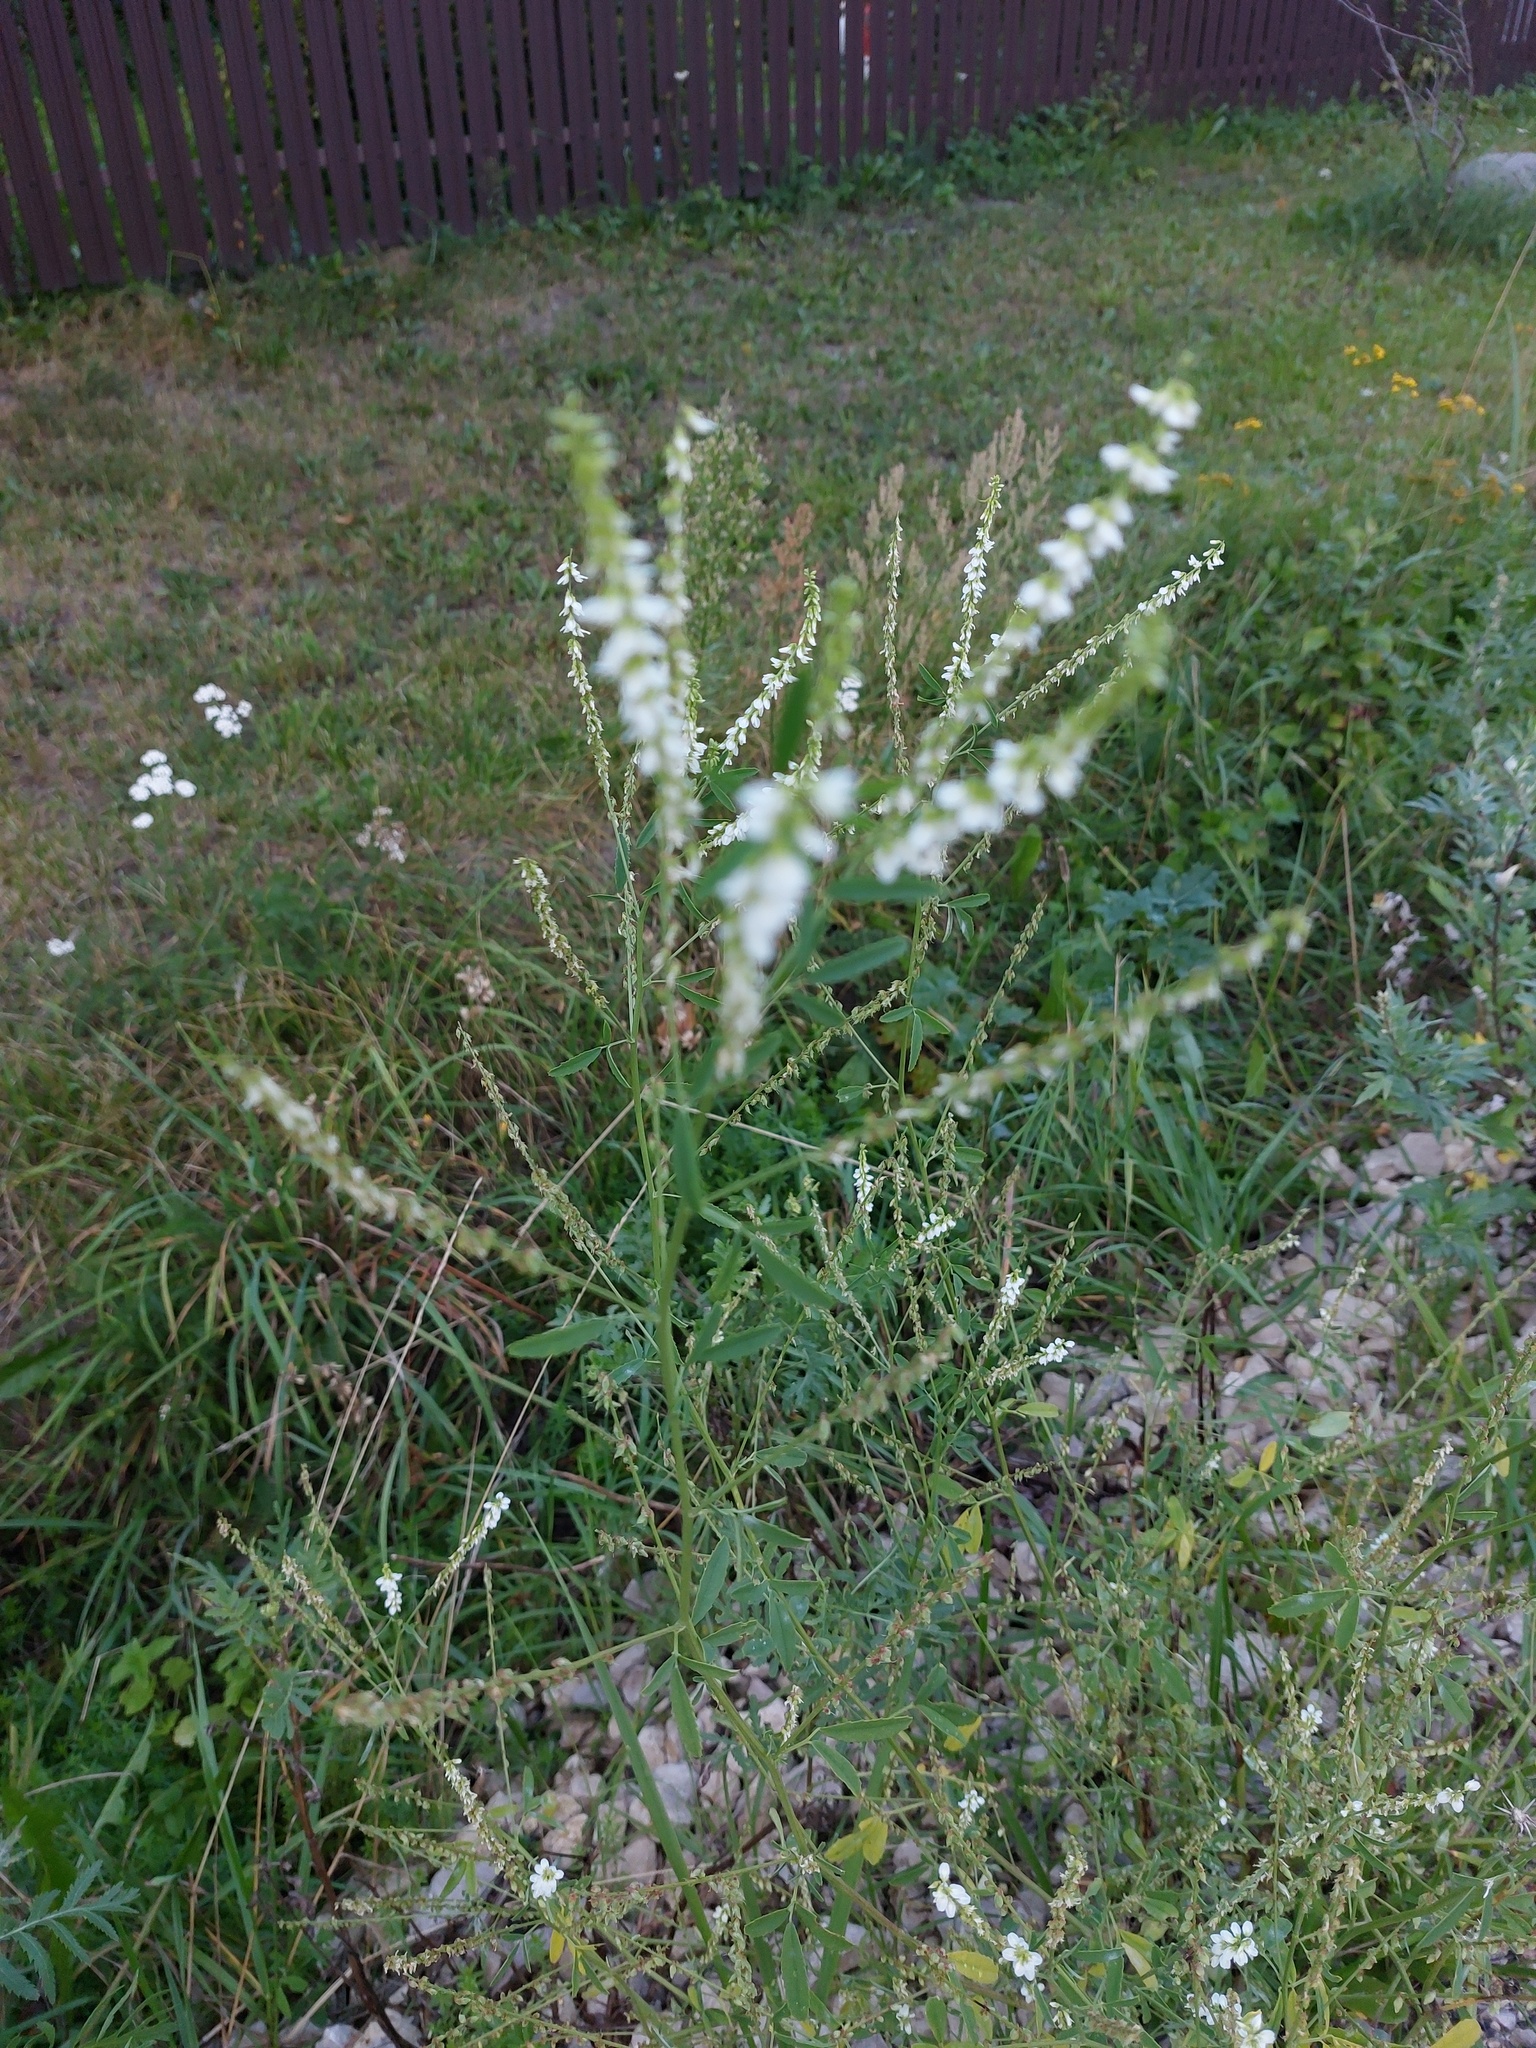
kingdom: Plantae
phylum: Tracheophyta
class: Magnoliopsida
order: Fabales
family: Fabaceae
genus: Melilotus
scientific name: Melilotus albus
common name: White melilot
